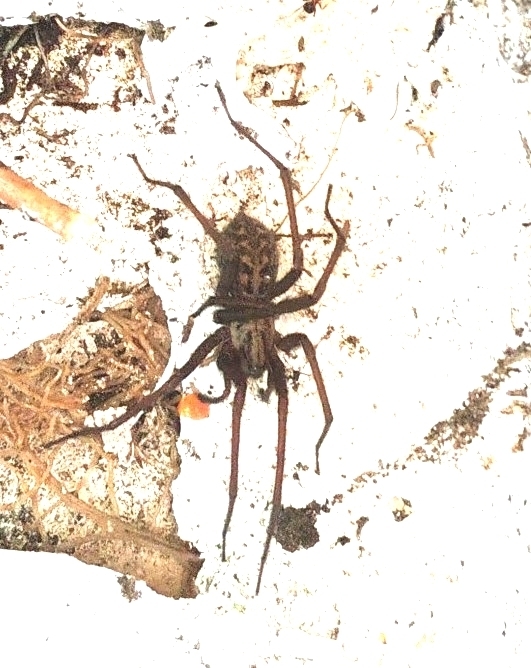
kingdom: Animalia
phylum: Arthropoda
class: Arachnida
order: Araneae
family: Agelenidae
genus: Eratigena
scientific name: Eratigena
